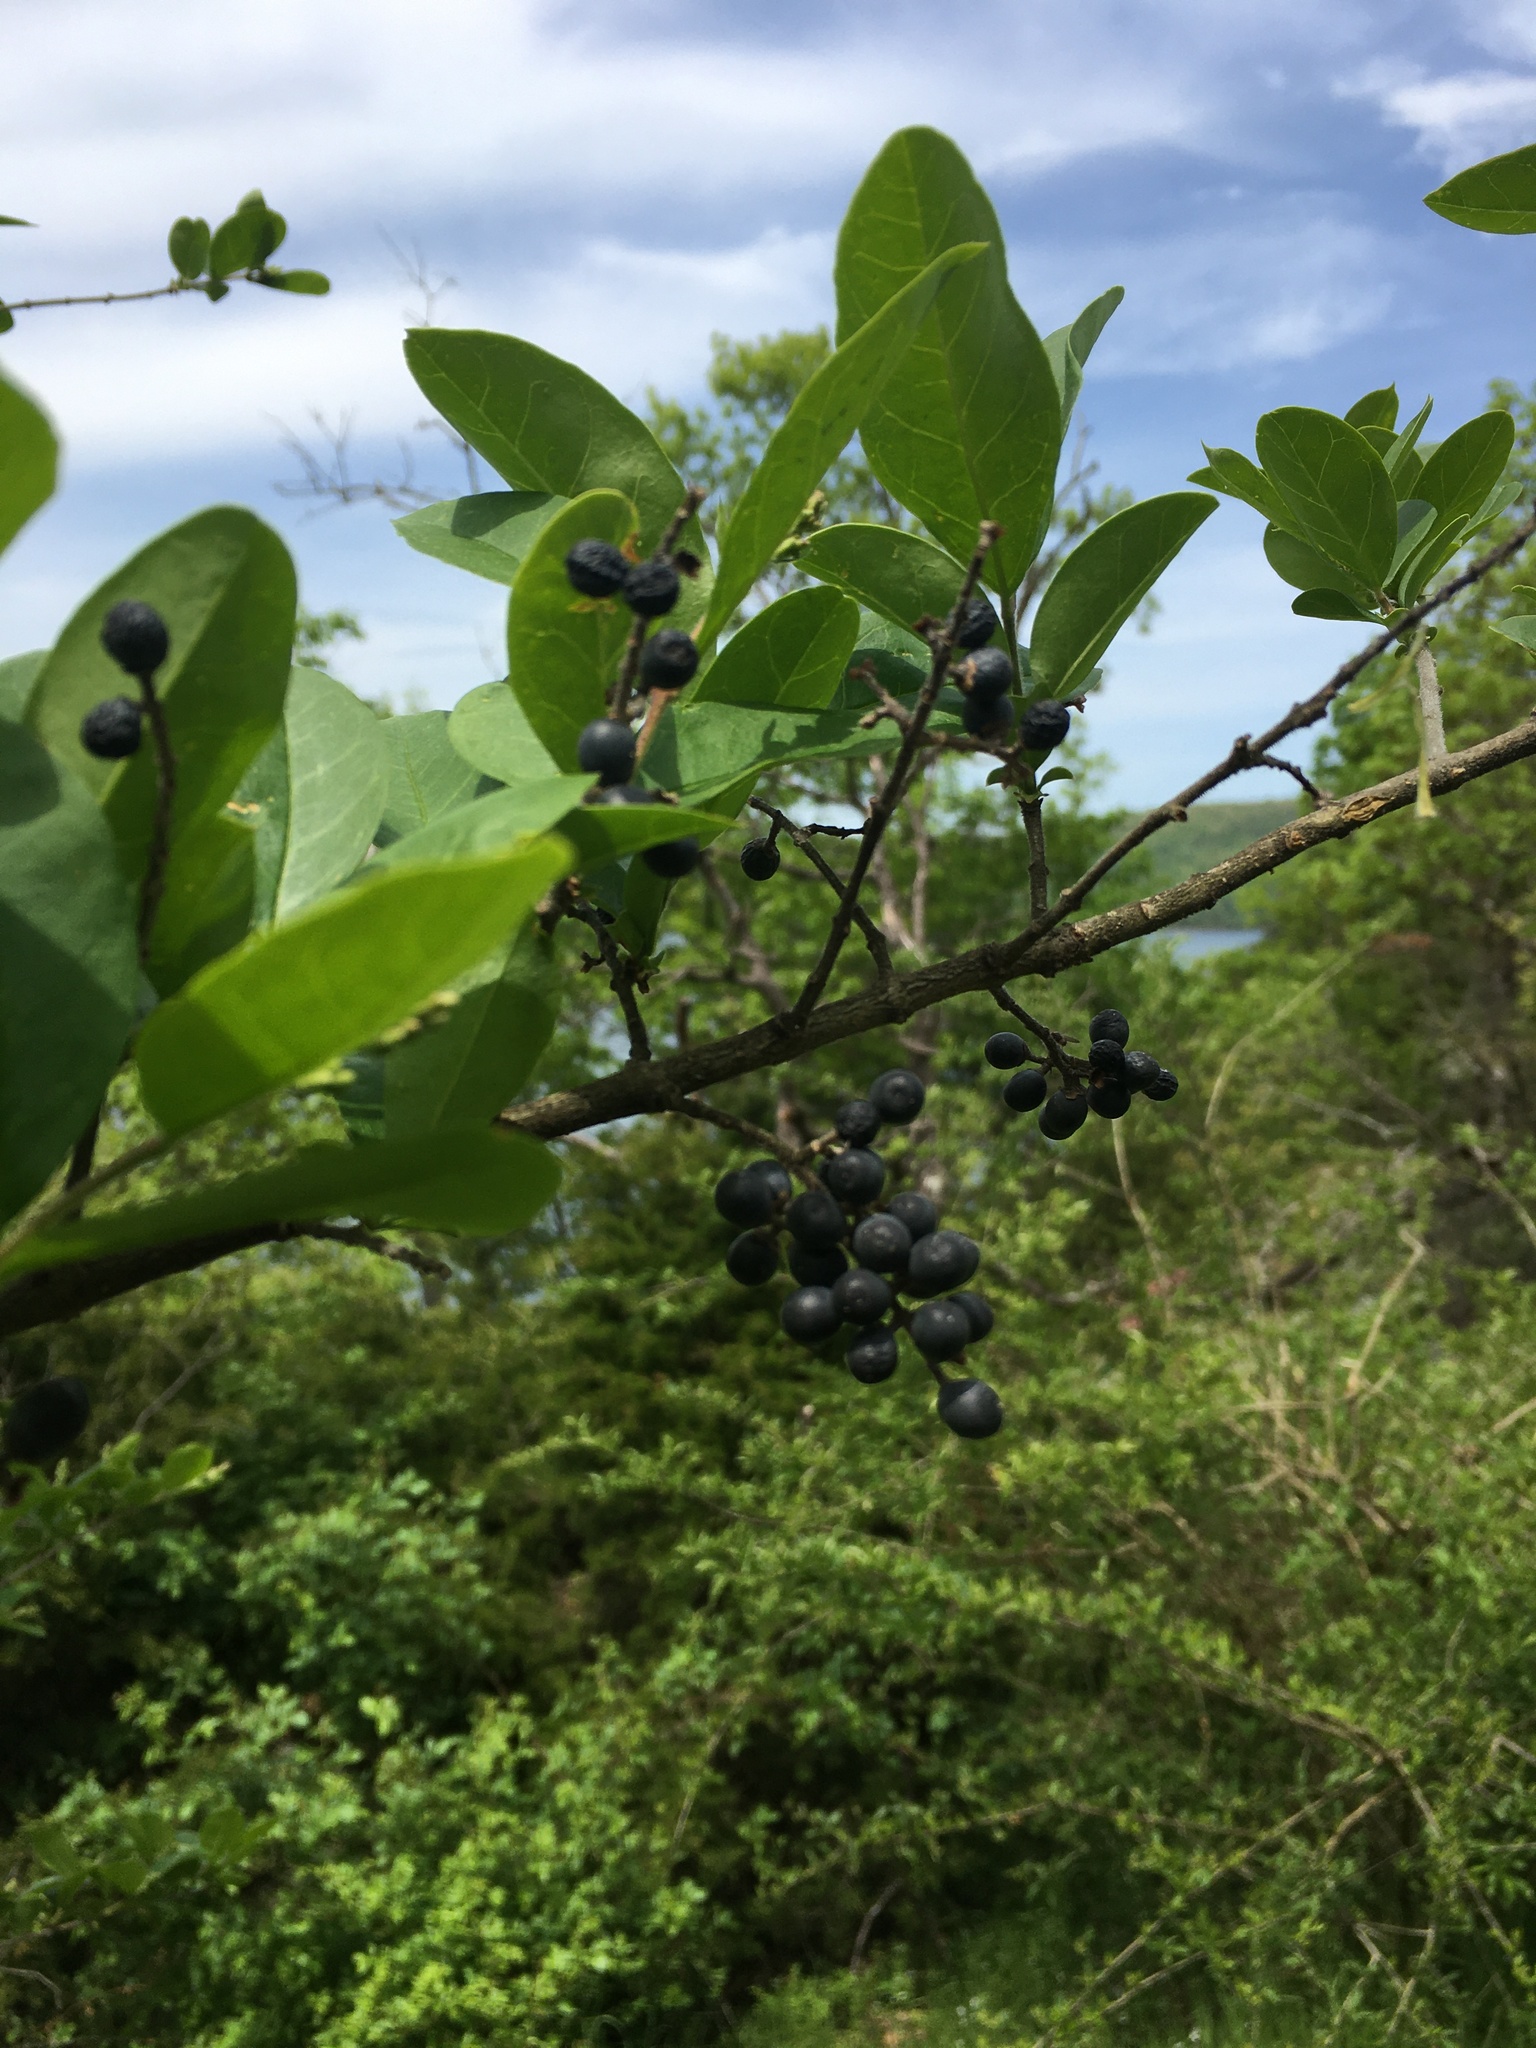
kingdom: Plantae
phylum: Tracheophyta
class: Magnoliopsida
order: Lamiales
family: Oleaceae
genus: Ligustrum
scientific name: Ligustrum obtusifolium
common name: Border privet
